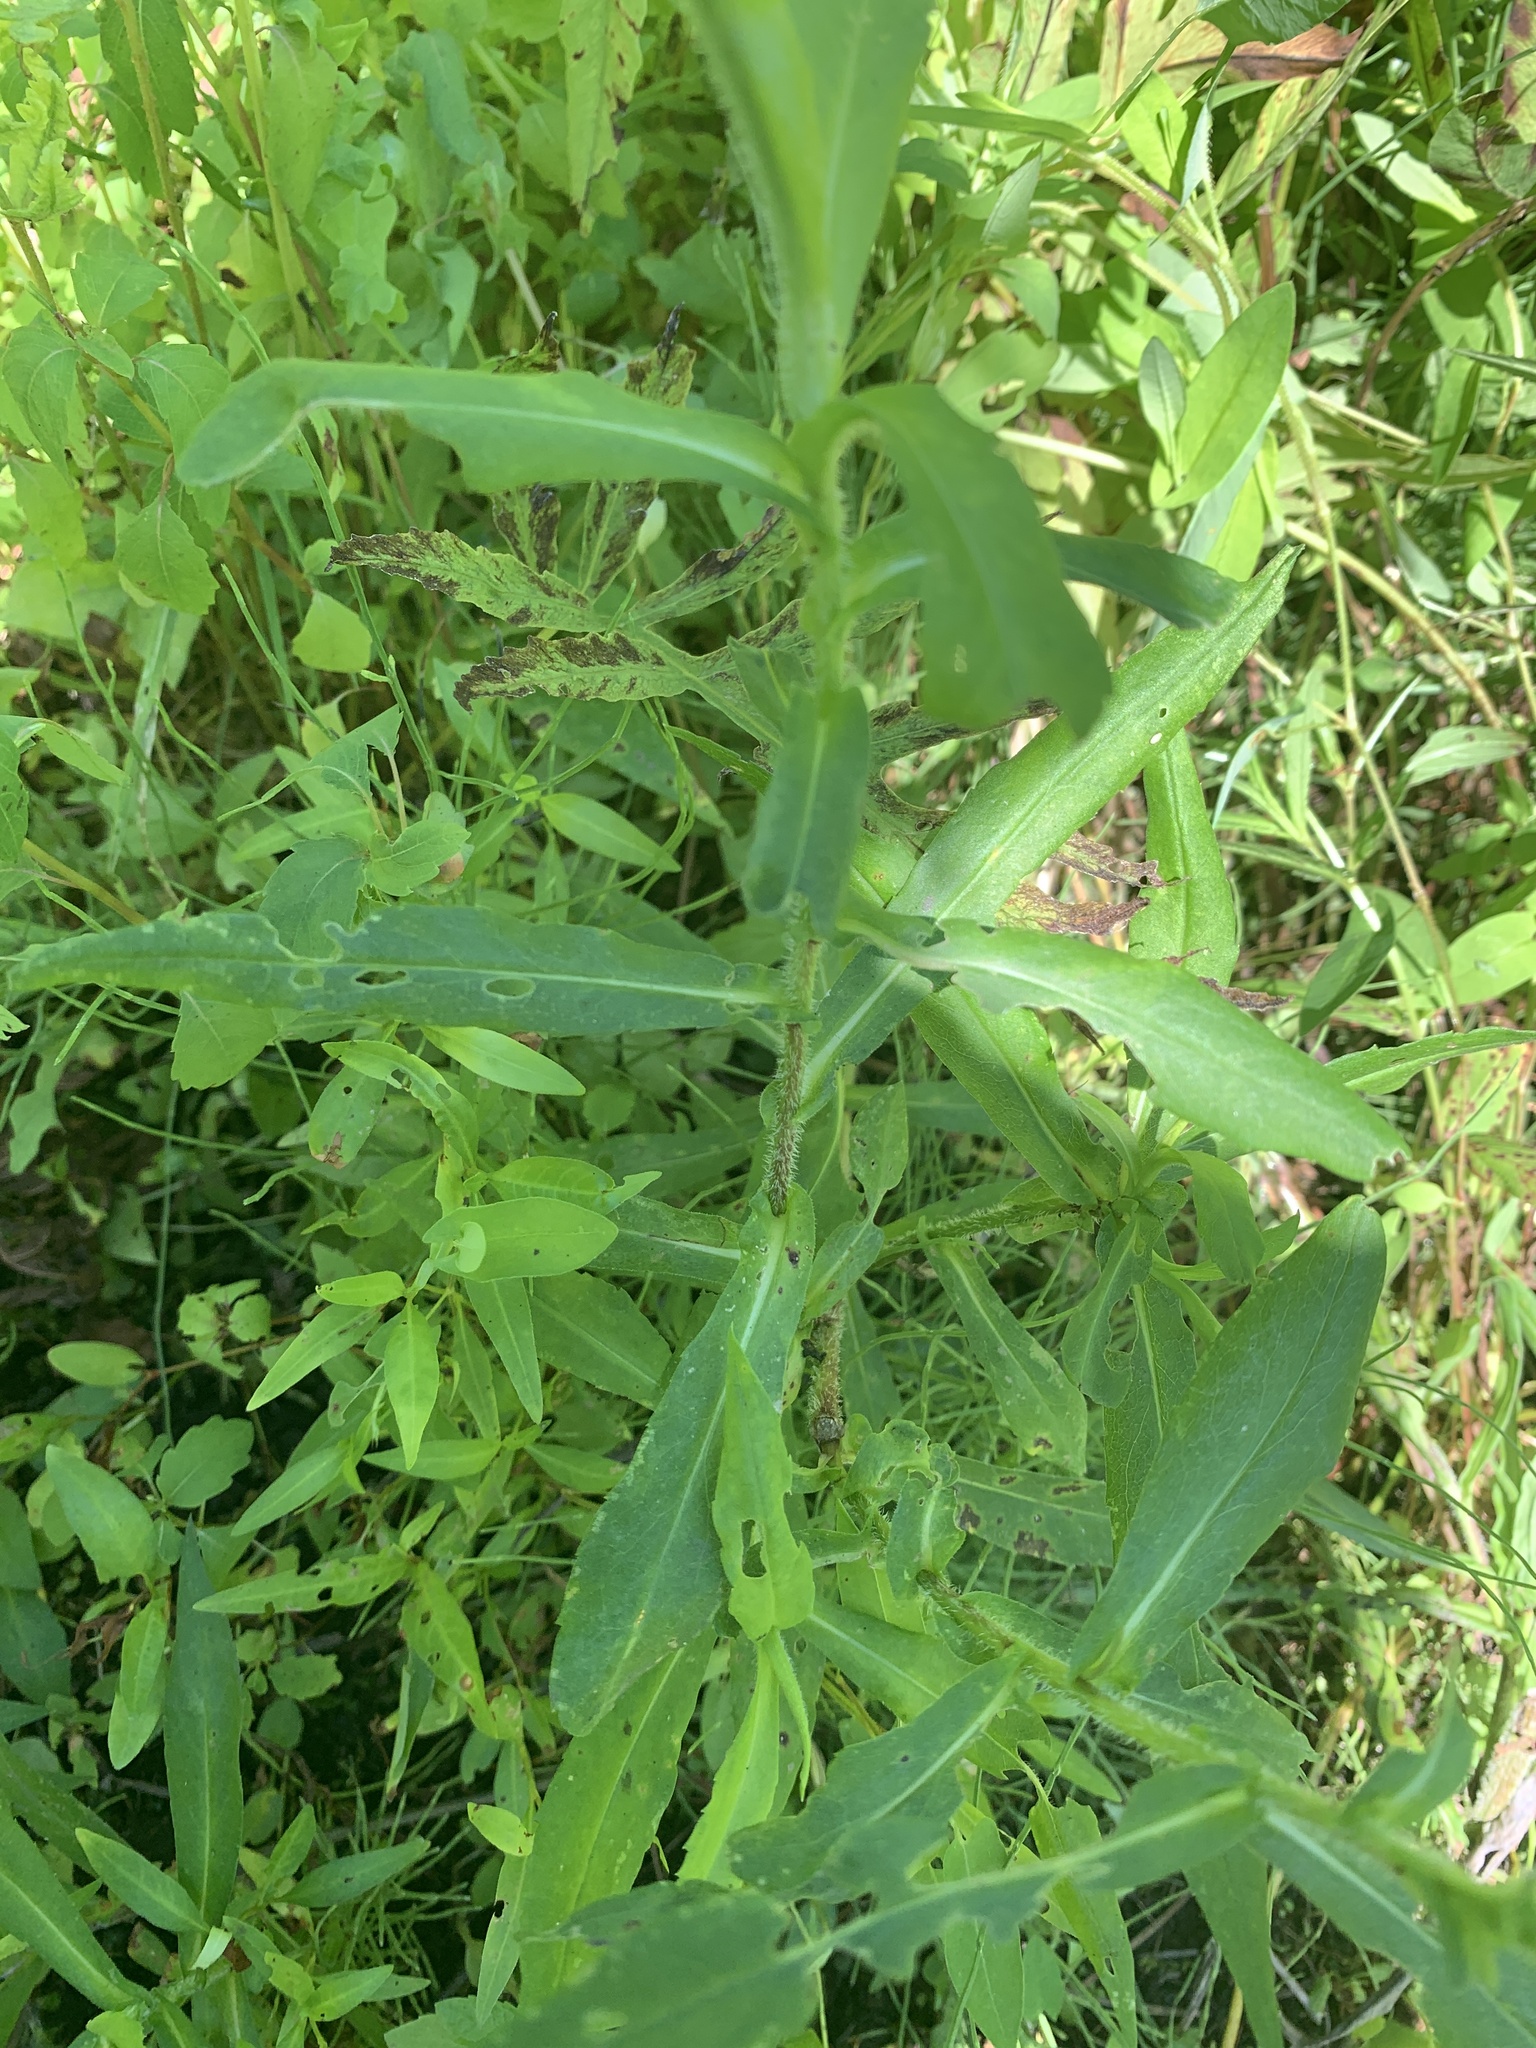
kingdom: Plantae
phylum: Tracheophyta
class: Magnoliopsida
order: Asterales
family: Asteraceae
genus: Symphyotrichum
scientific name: Symphyotrichum puniceum
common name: Bog aster
